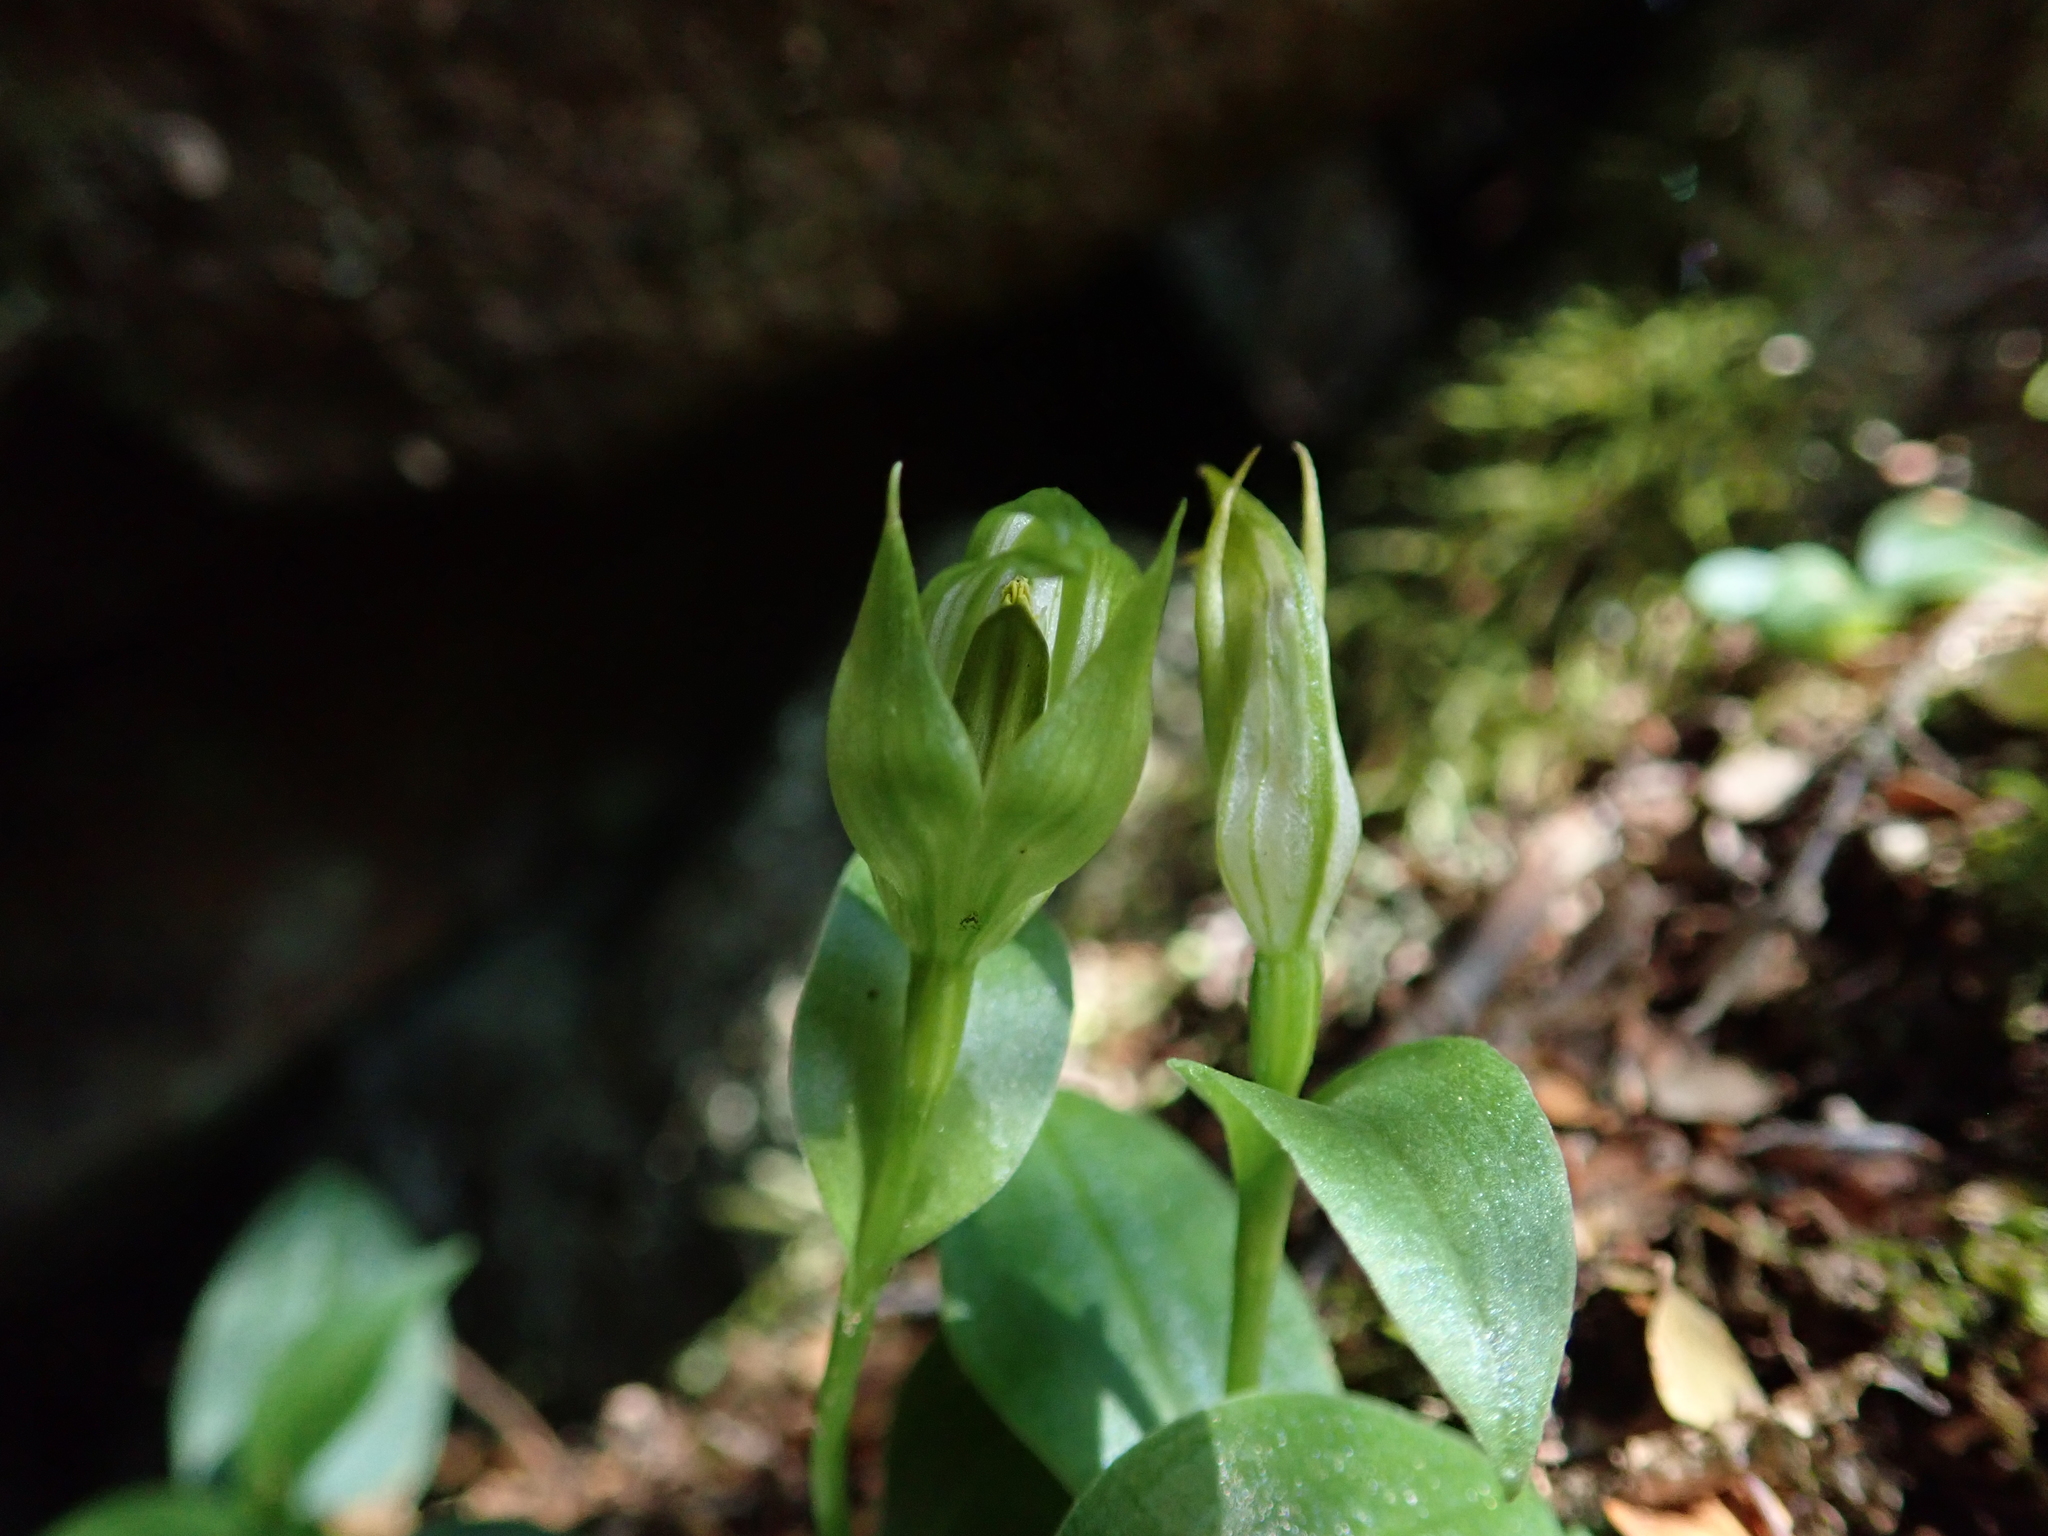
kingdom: Plantae
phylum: Tracheophyta
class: Liliopsida
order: Asparagales
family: Orchidaceae
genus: Pterostylis
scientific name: Pterostylis scabrida
